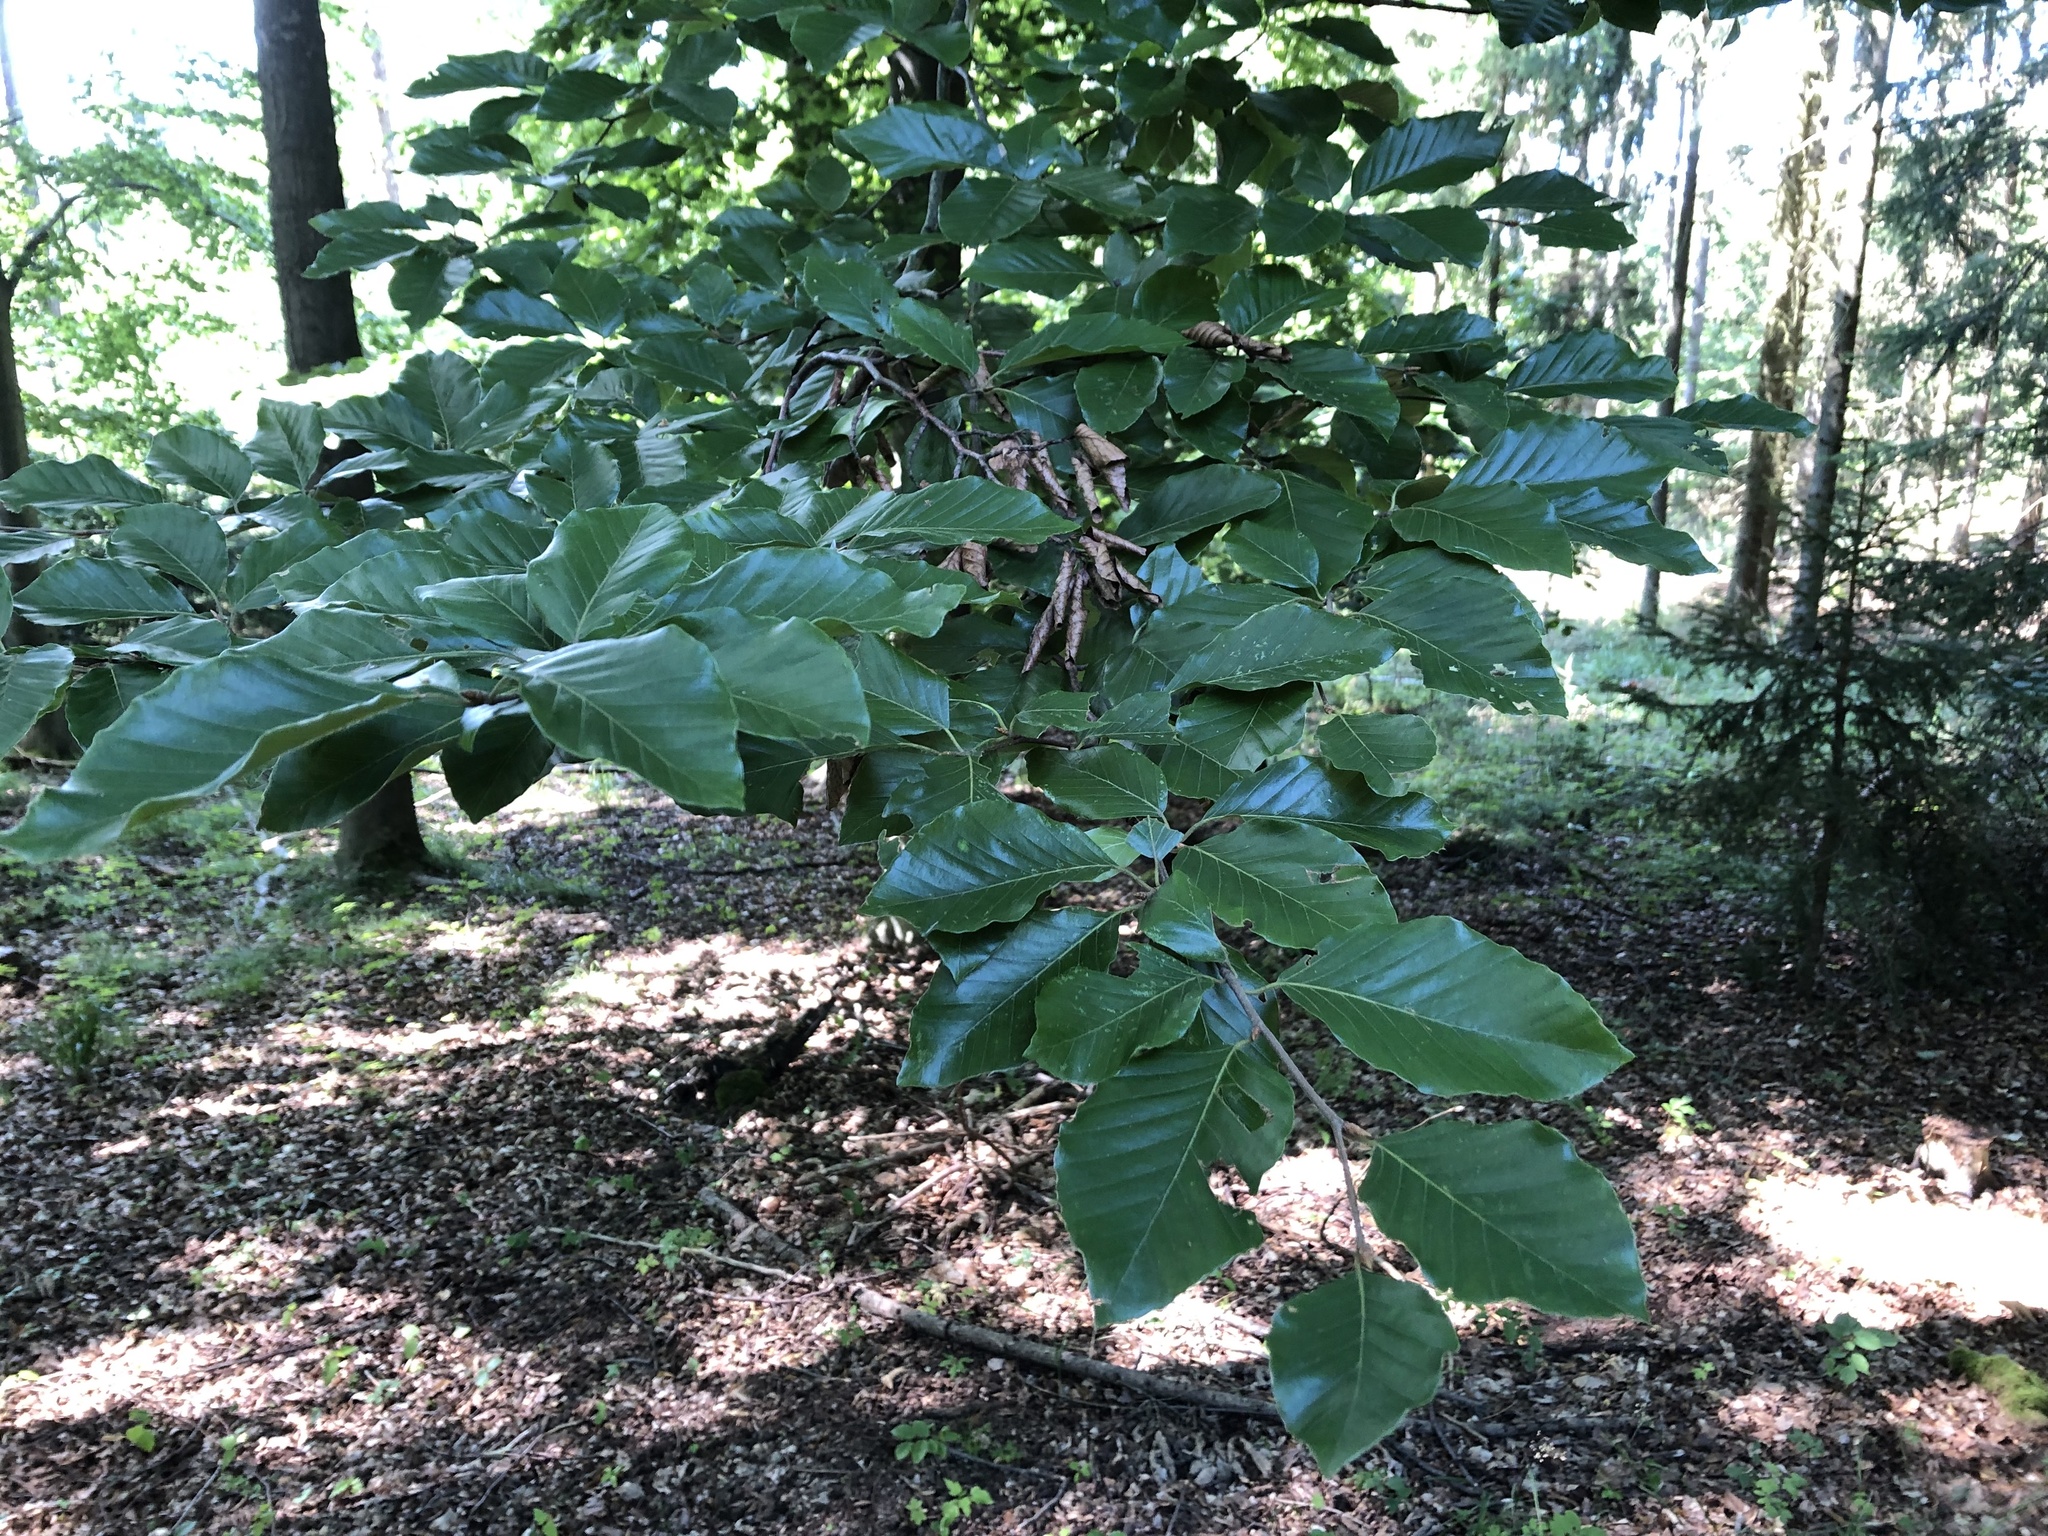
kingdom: Plantae
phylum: Tracheophyta
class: Magnoliopsida
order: Fagales
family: Fagaceae
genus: Fagus
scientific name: Fagus sylvatica
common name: Beech
